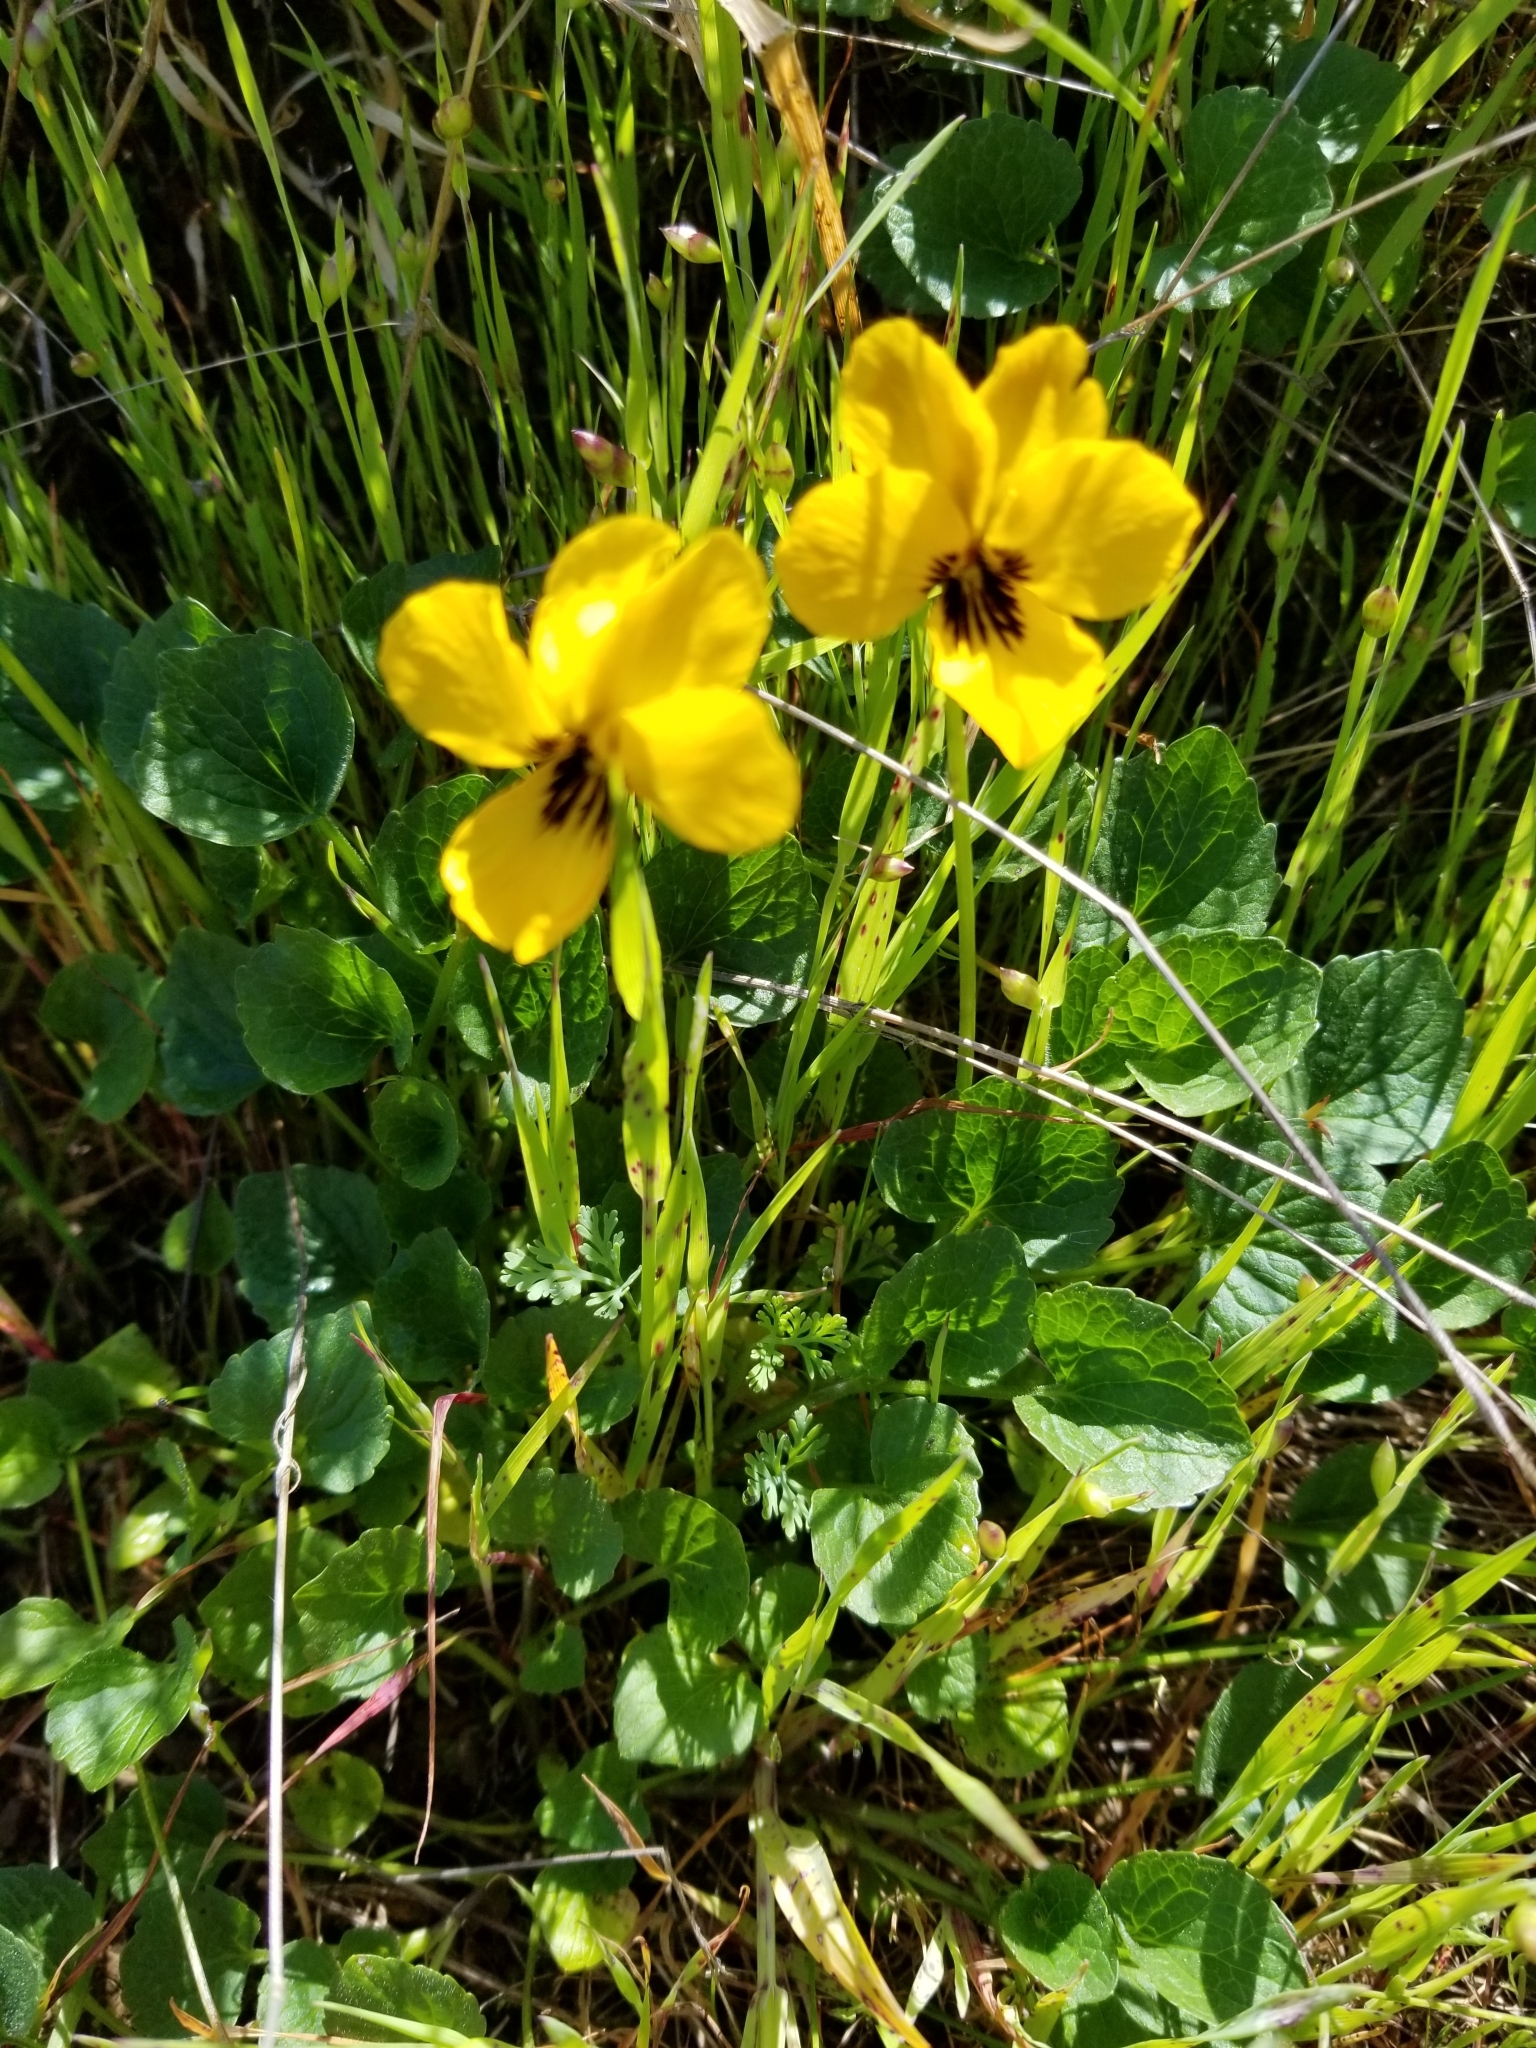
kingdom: Plantae
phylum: Tracheophyta
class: Magnoliopsida
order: Malpighiales
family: Violaceae
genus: Viola
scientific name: Viola pedunculata
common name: California golden violet
